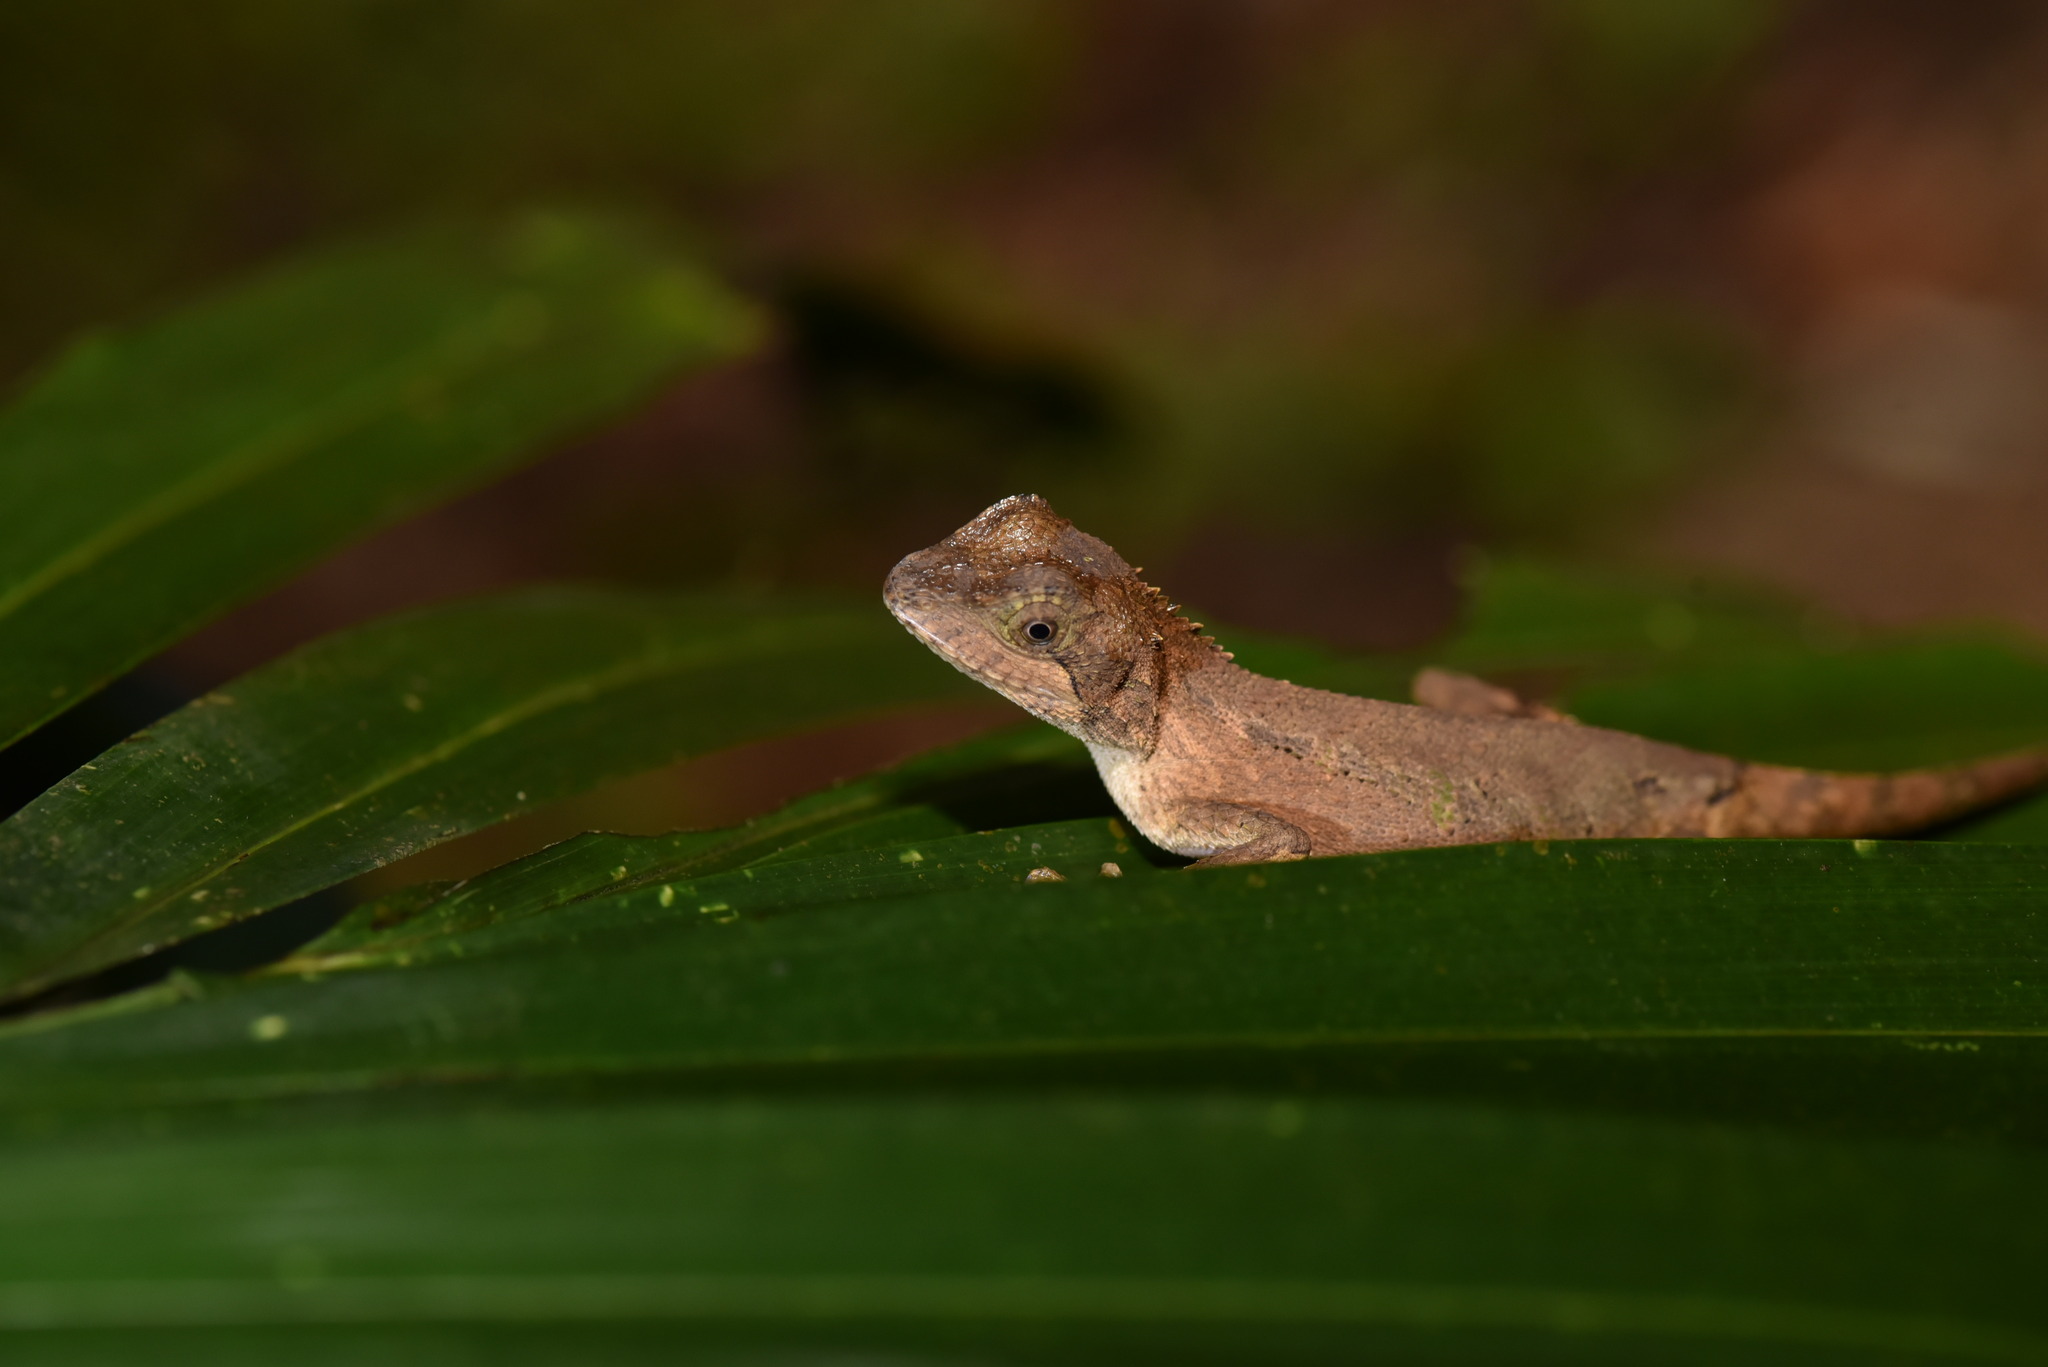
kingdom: Animalia
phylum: Chordata
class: Squamata
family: Agamidae
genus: Diploderma
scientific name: Diploderma swinhonis
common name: Taiwan japalure
